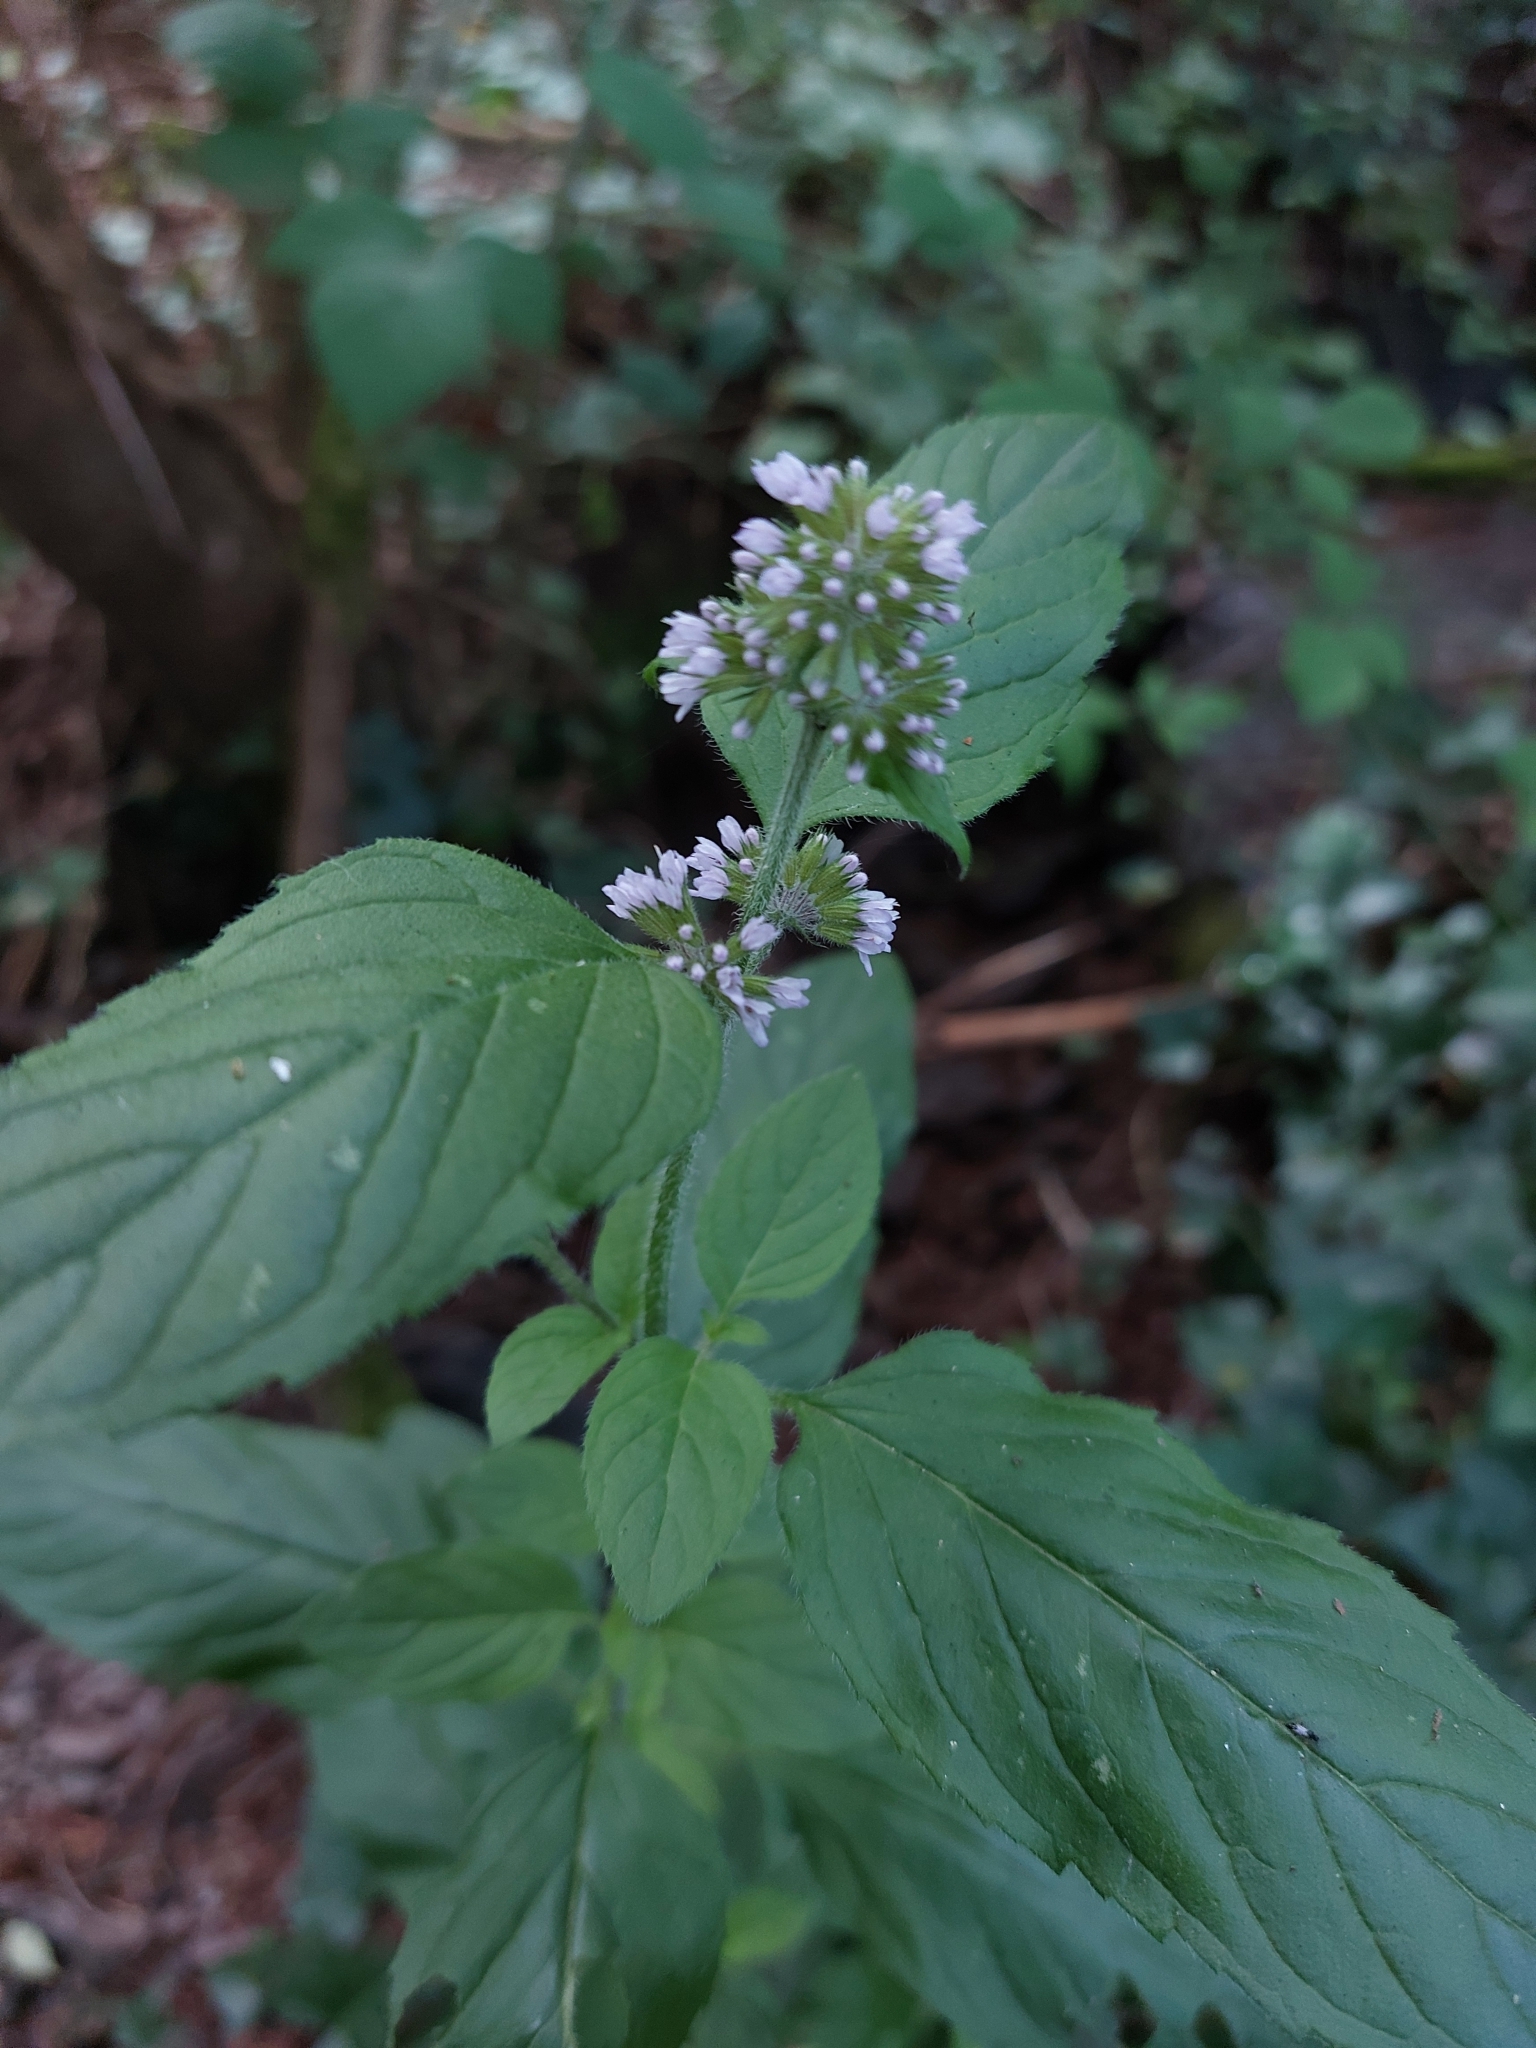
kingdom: Plantae
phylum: Tracheophyta
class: Magnoliopsida
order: Lamiales
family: Lamiaceae
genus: Mentha
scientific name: Mentha aquatica
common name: Water mint
